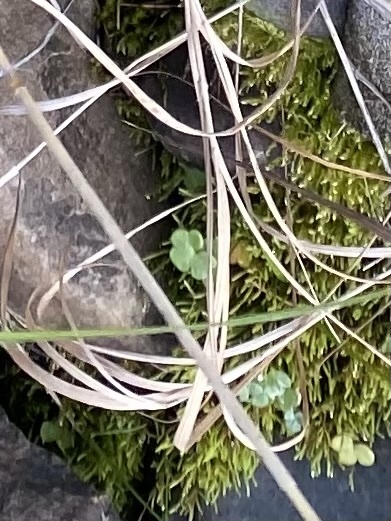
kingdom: Plantae
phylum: Tracheophyta
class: Magnoliopsida
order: Saxifragales
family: Saxifragaceae
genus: Saxifraga
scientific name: Saxifraga cernua
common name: Drooping saxifrage
